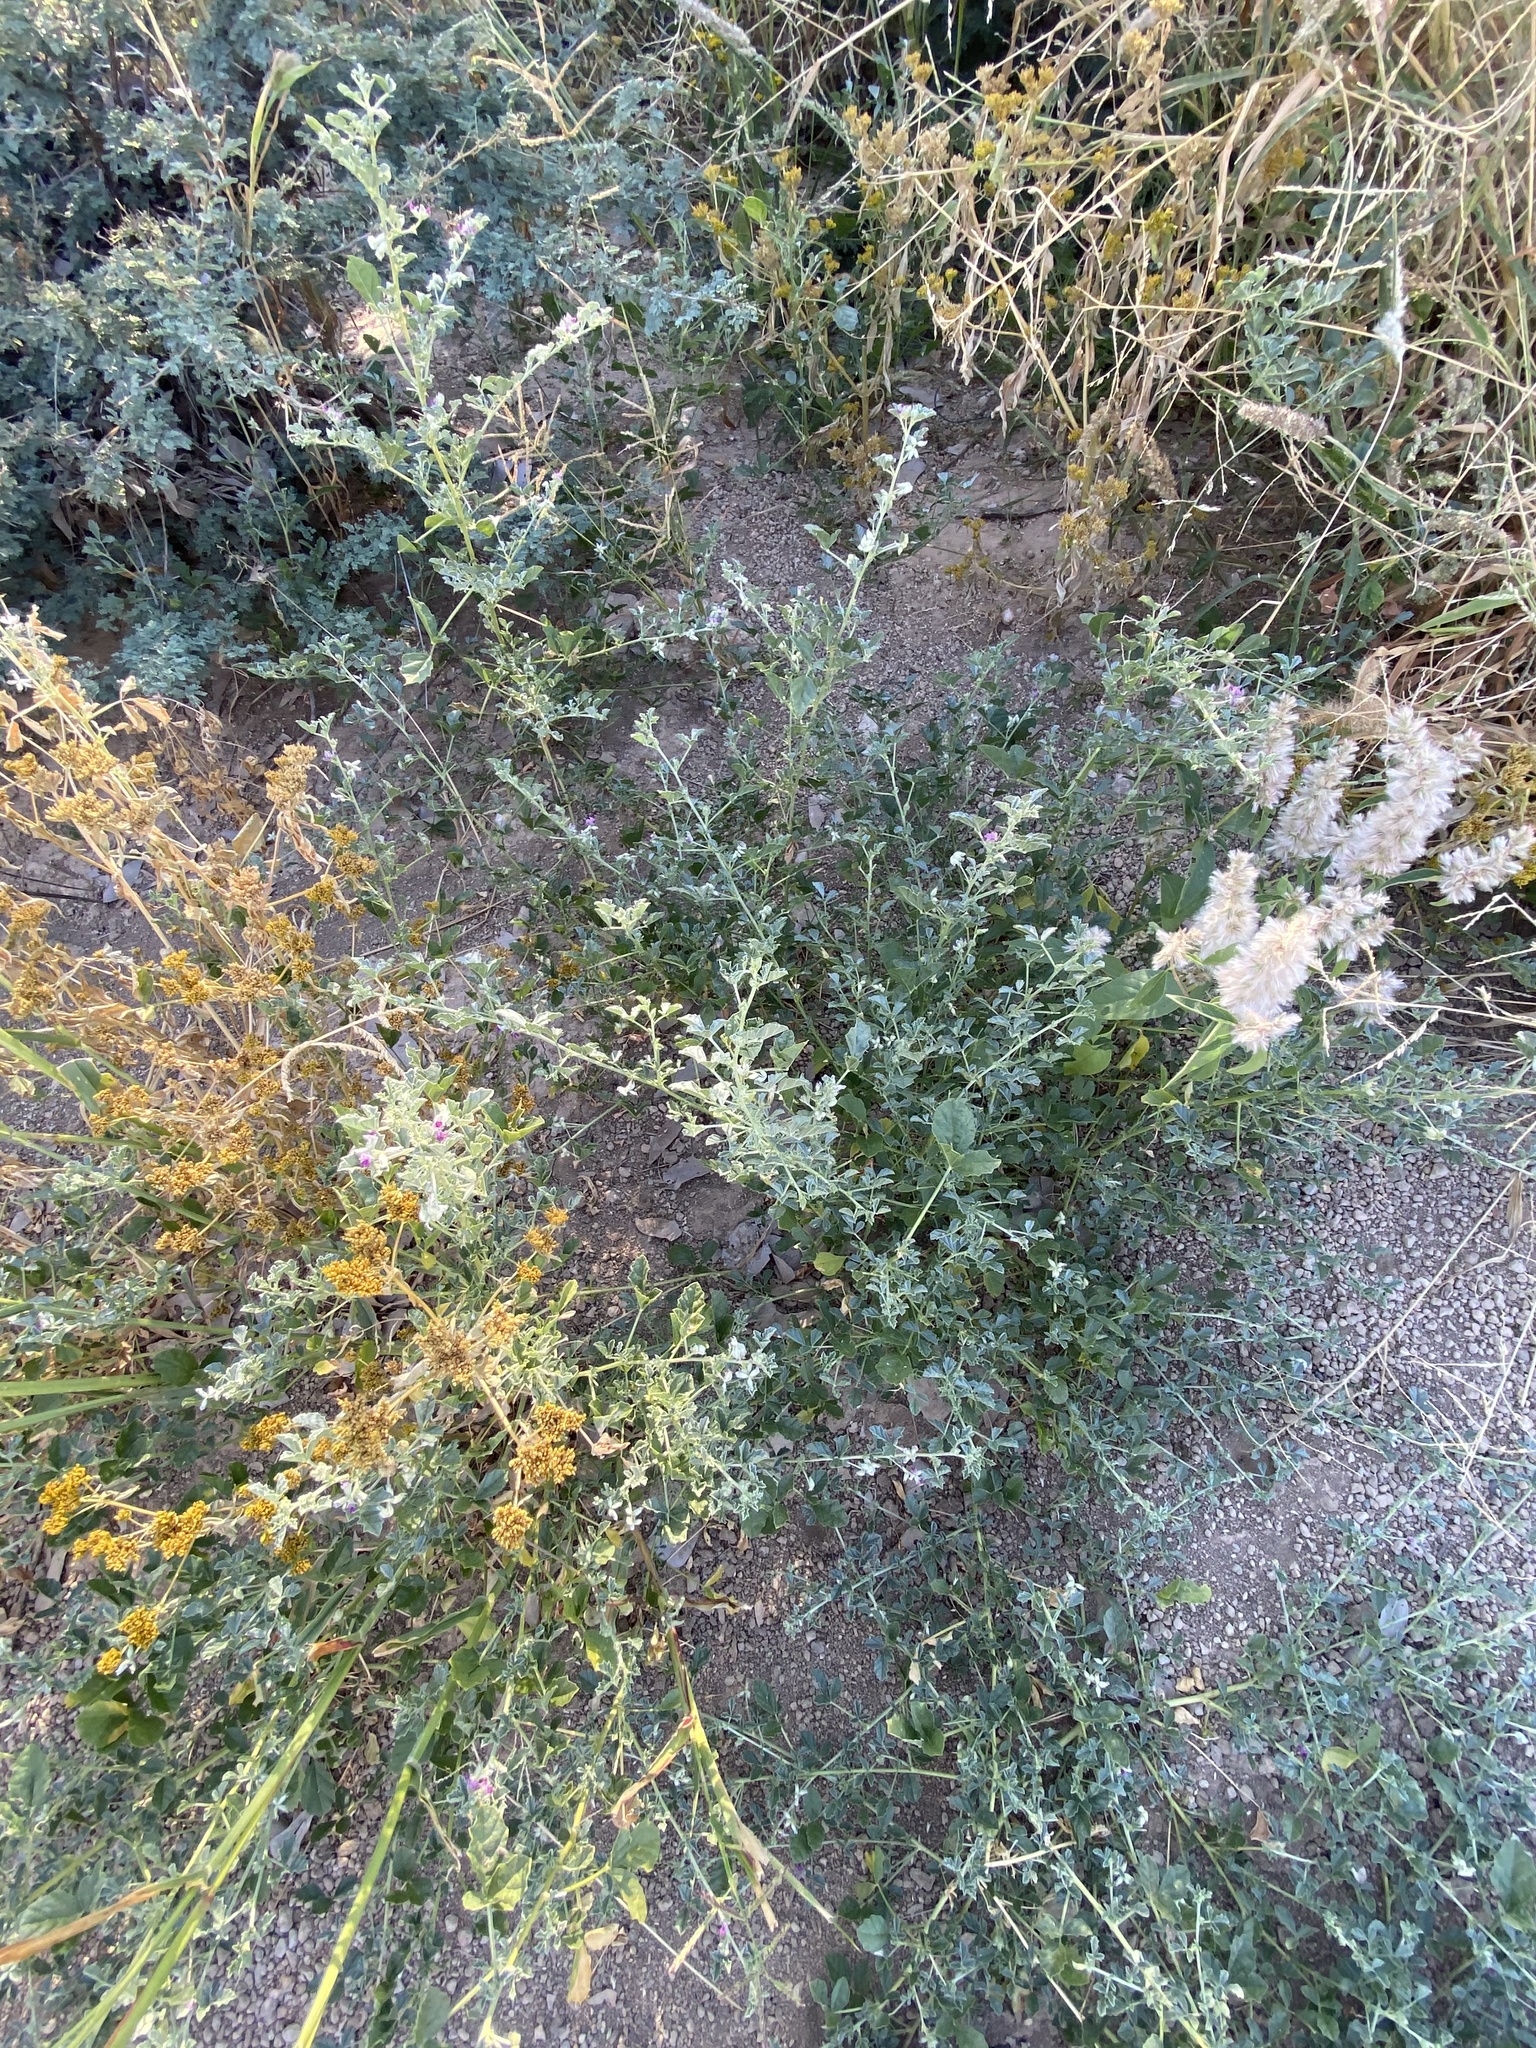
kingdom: Plantae
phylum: Tracheophyta
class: Magnoliopsida
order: Fabales
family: Fabaceae
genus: Cullen
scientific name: Cullen tomentosum
